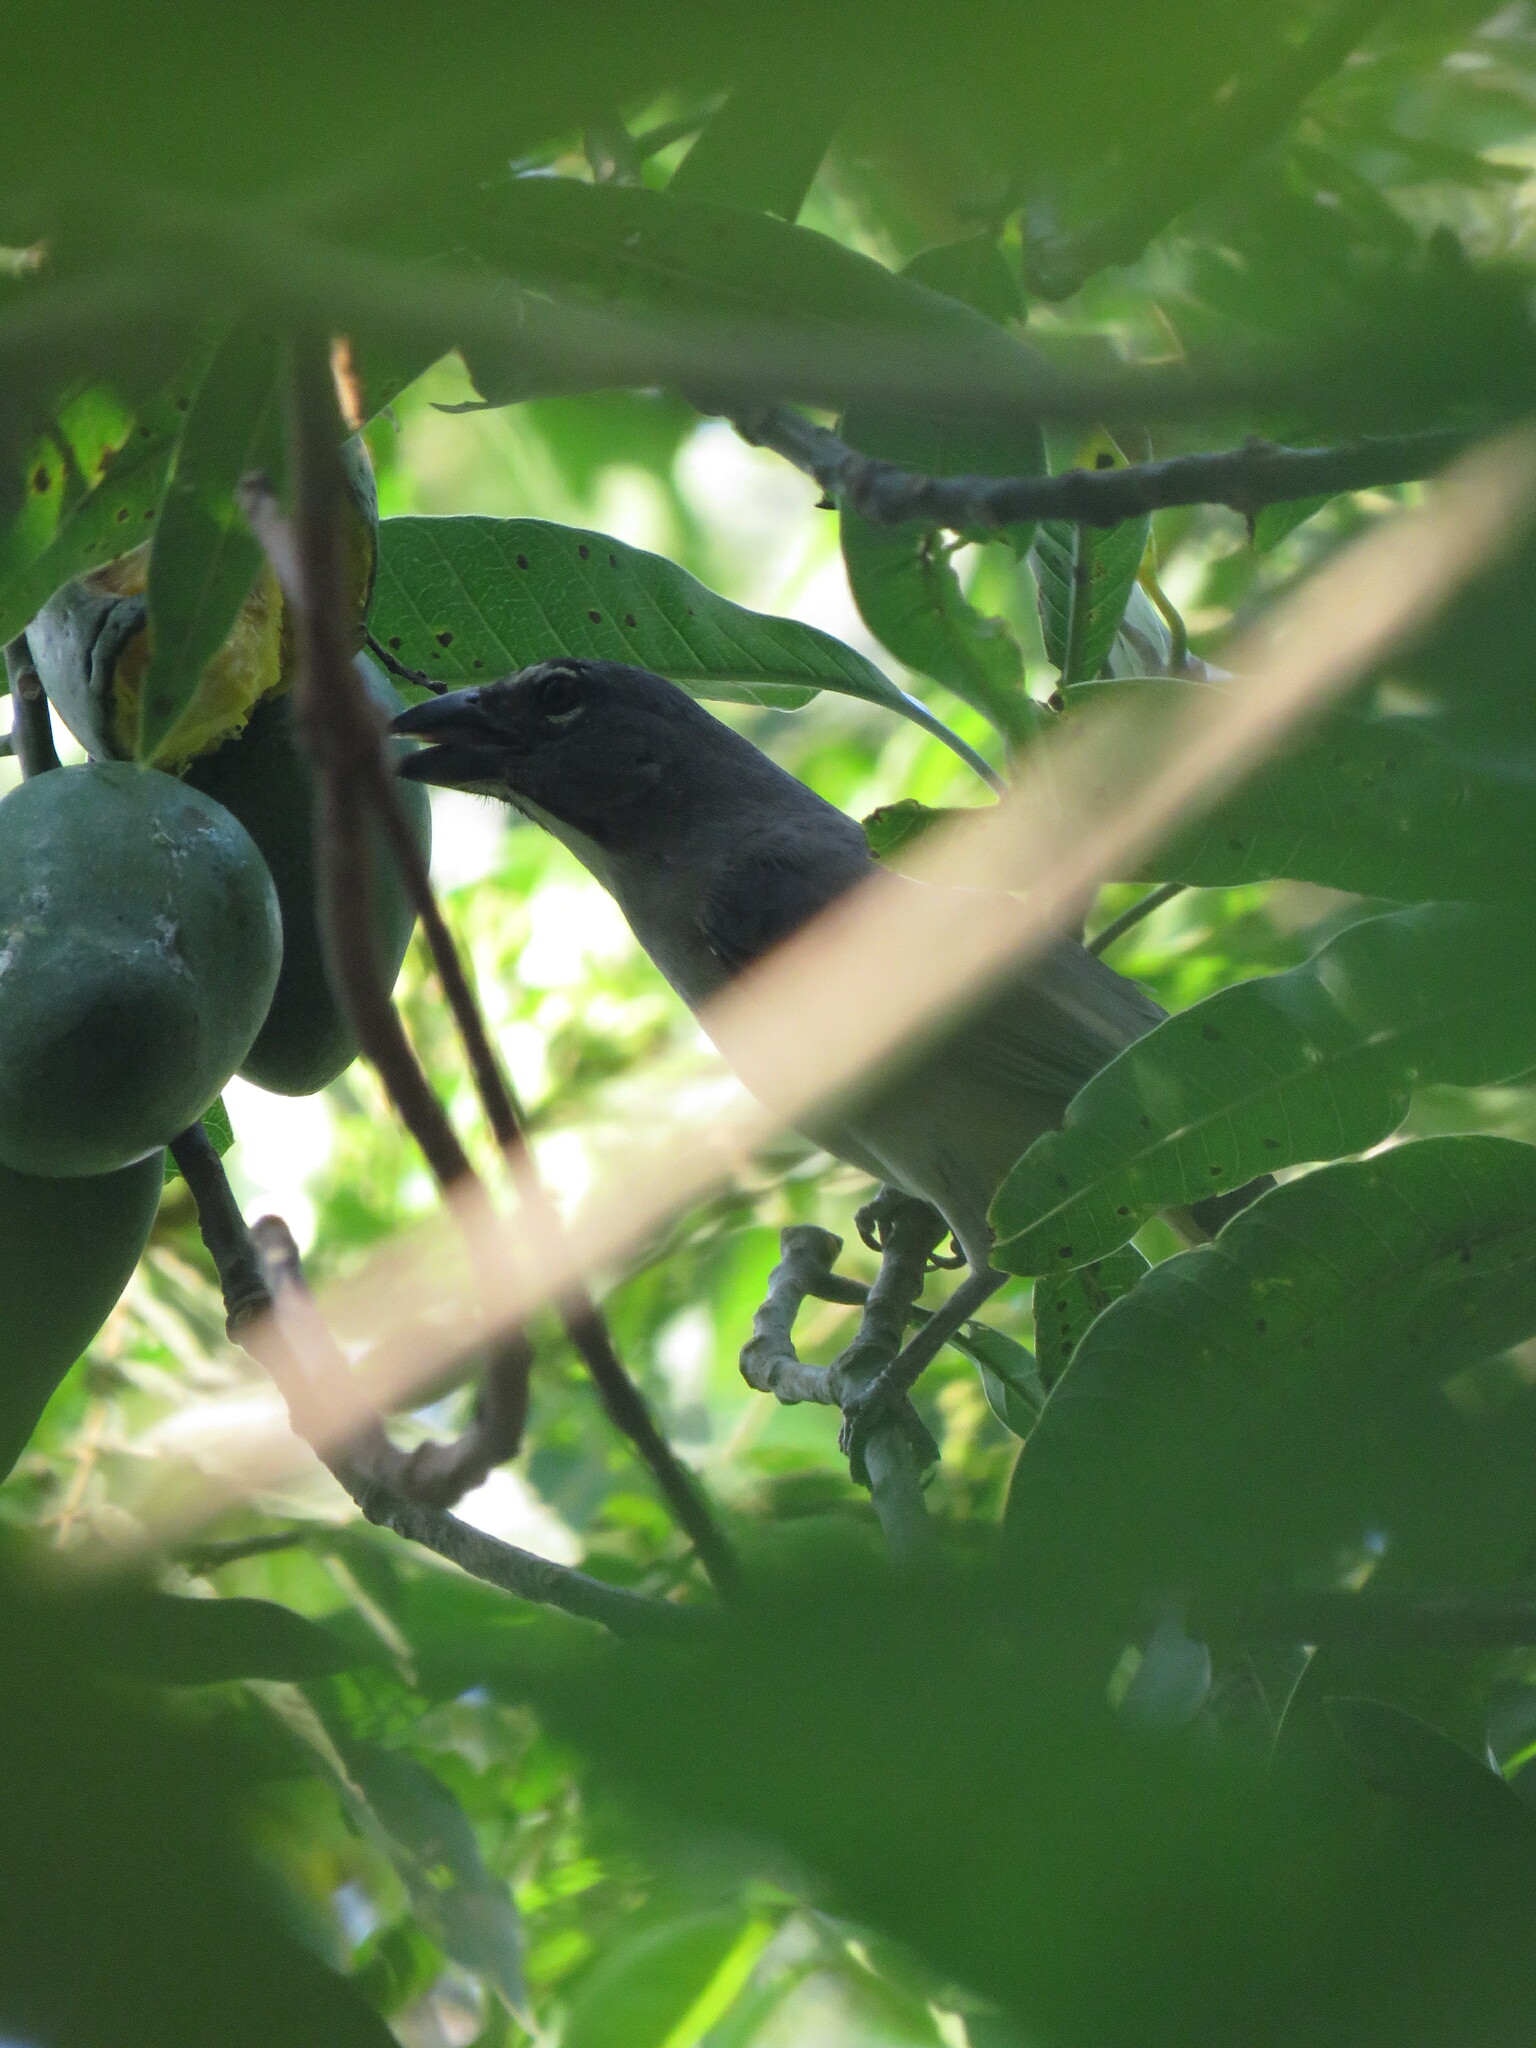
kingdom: Animalia
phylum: Chordata
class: Aves
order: Passeriformes
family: Thraupidae
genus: Saltator
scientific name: Saltator olivascens
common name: Caribbean grey saltator
